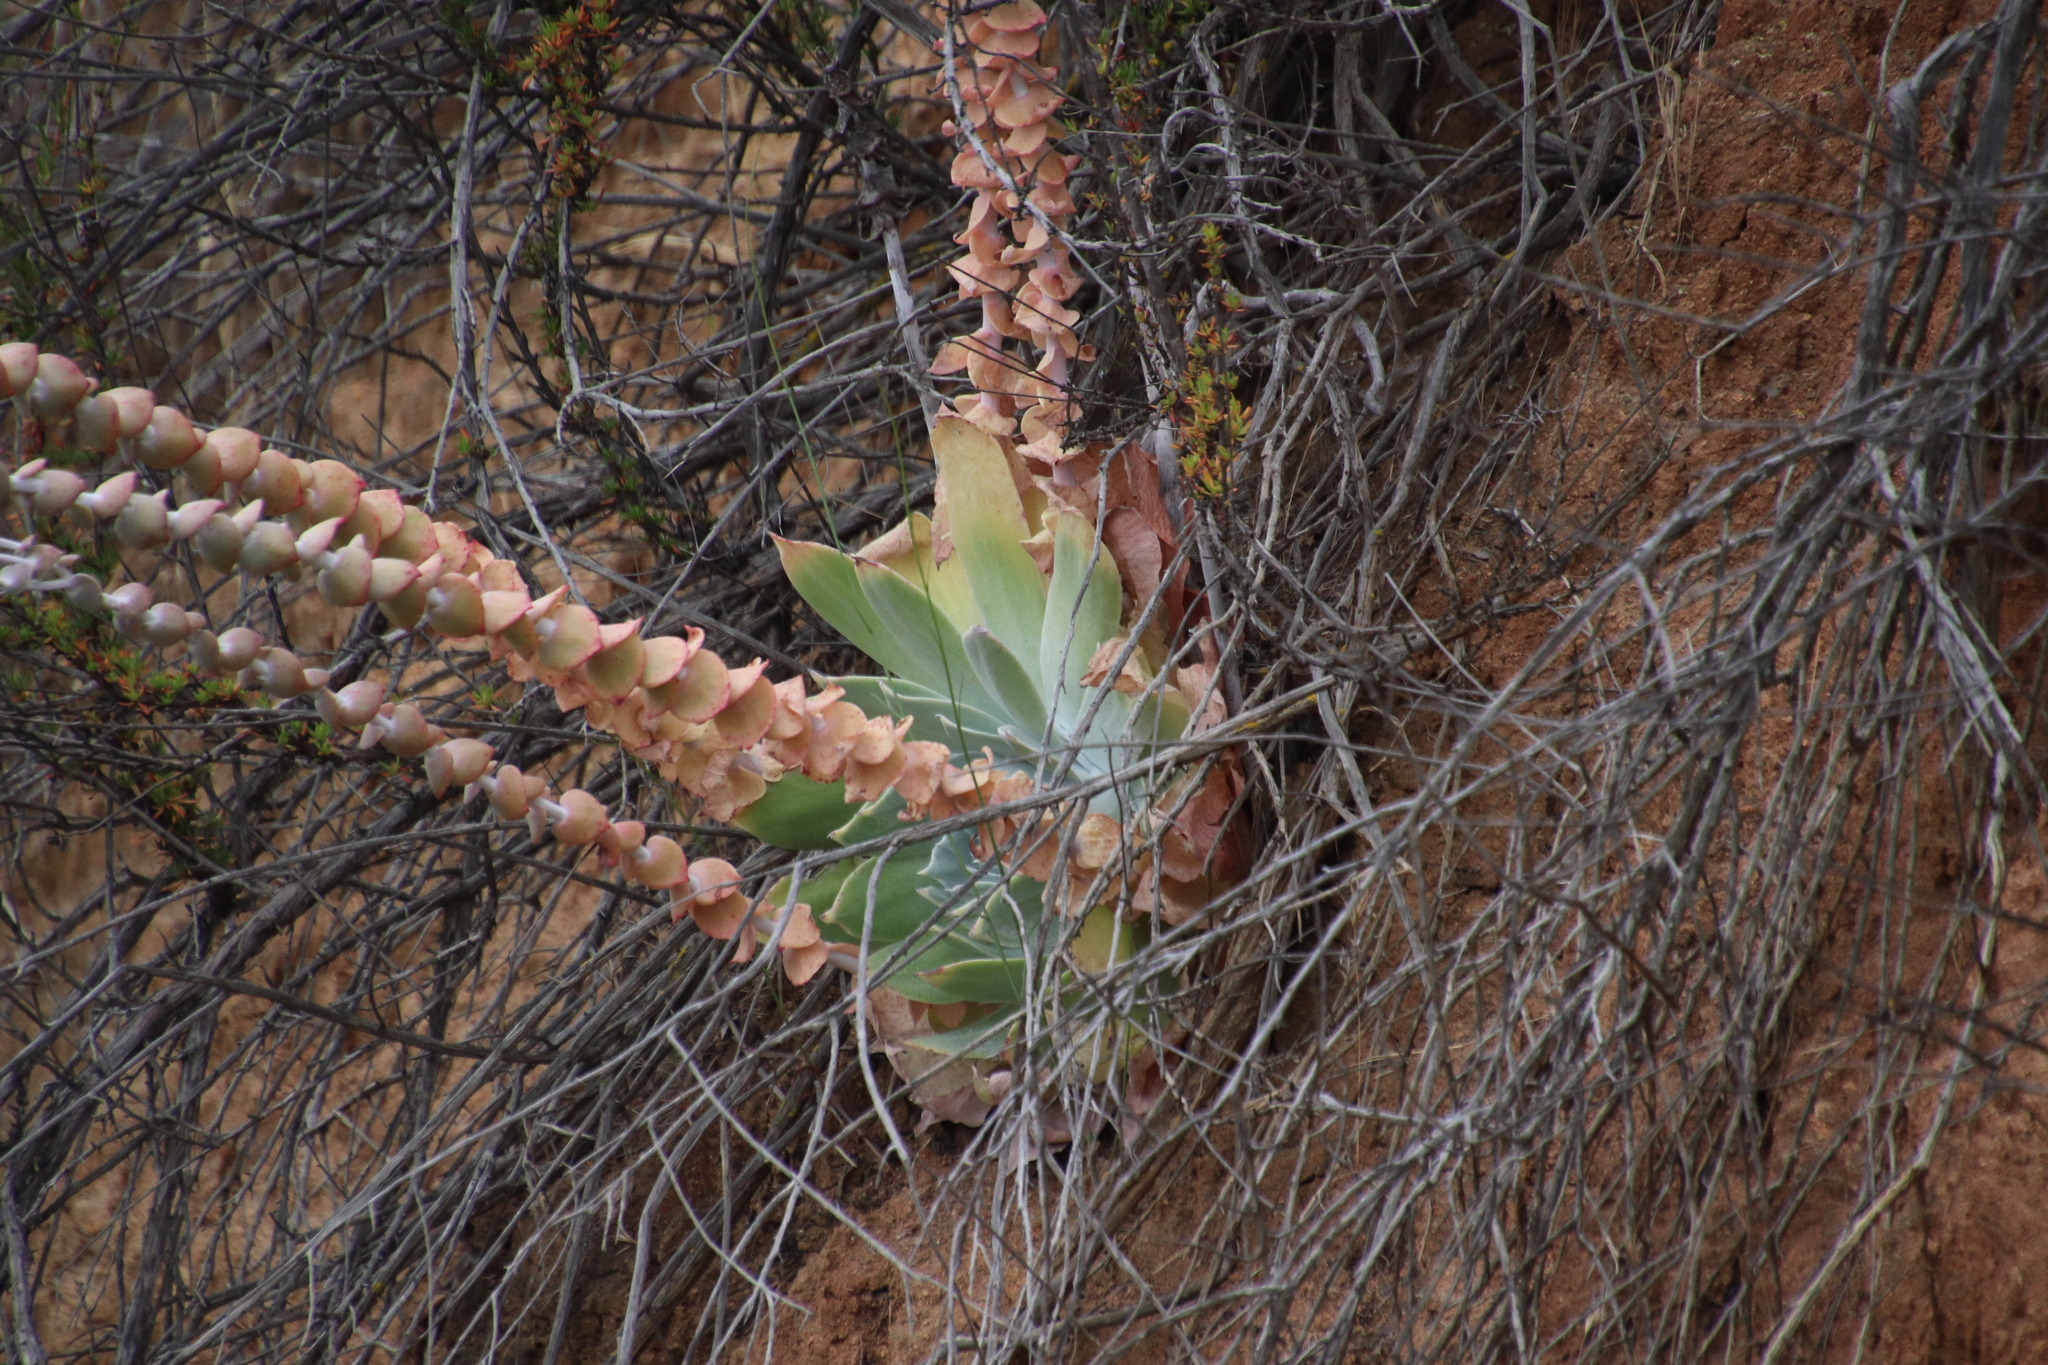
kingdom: Plantae
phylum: Tracheophyta
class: Magnoliopsida
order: Saxifragales
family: Crassulaceae
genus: Dudleya
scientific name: Dudleya pulverulenta
